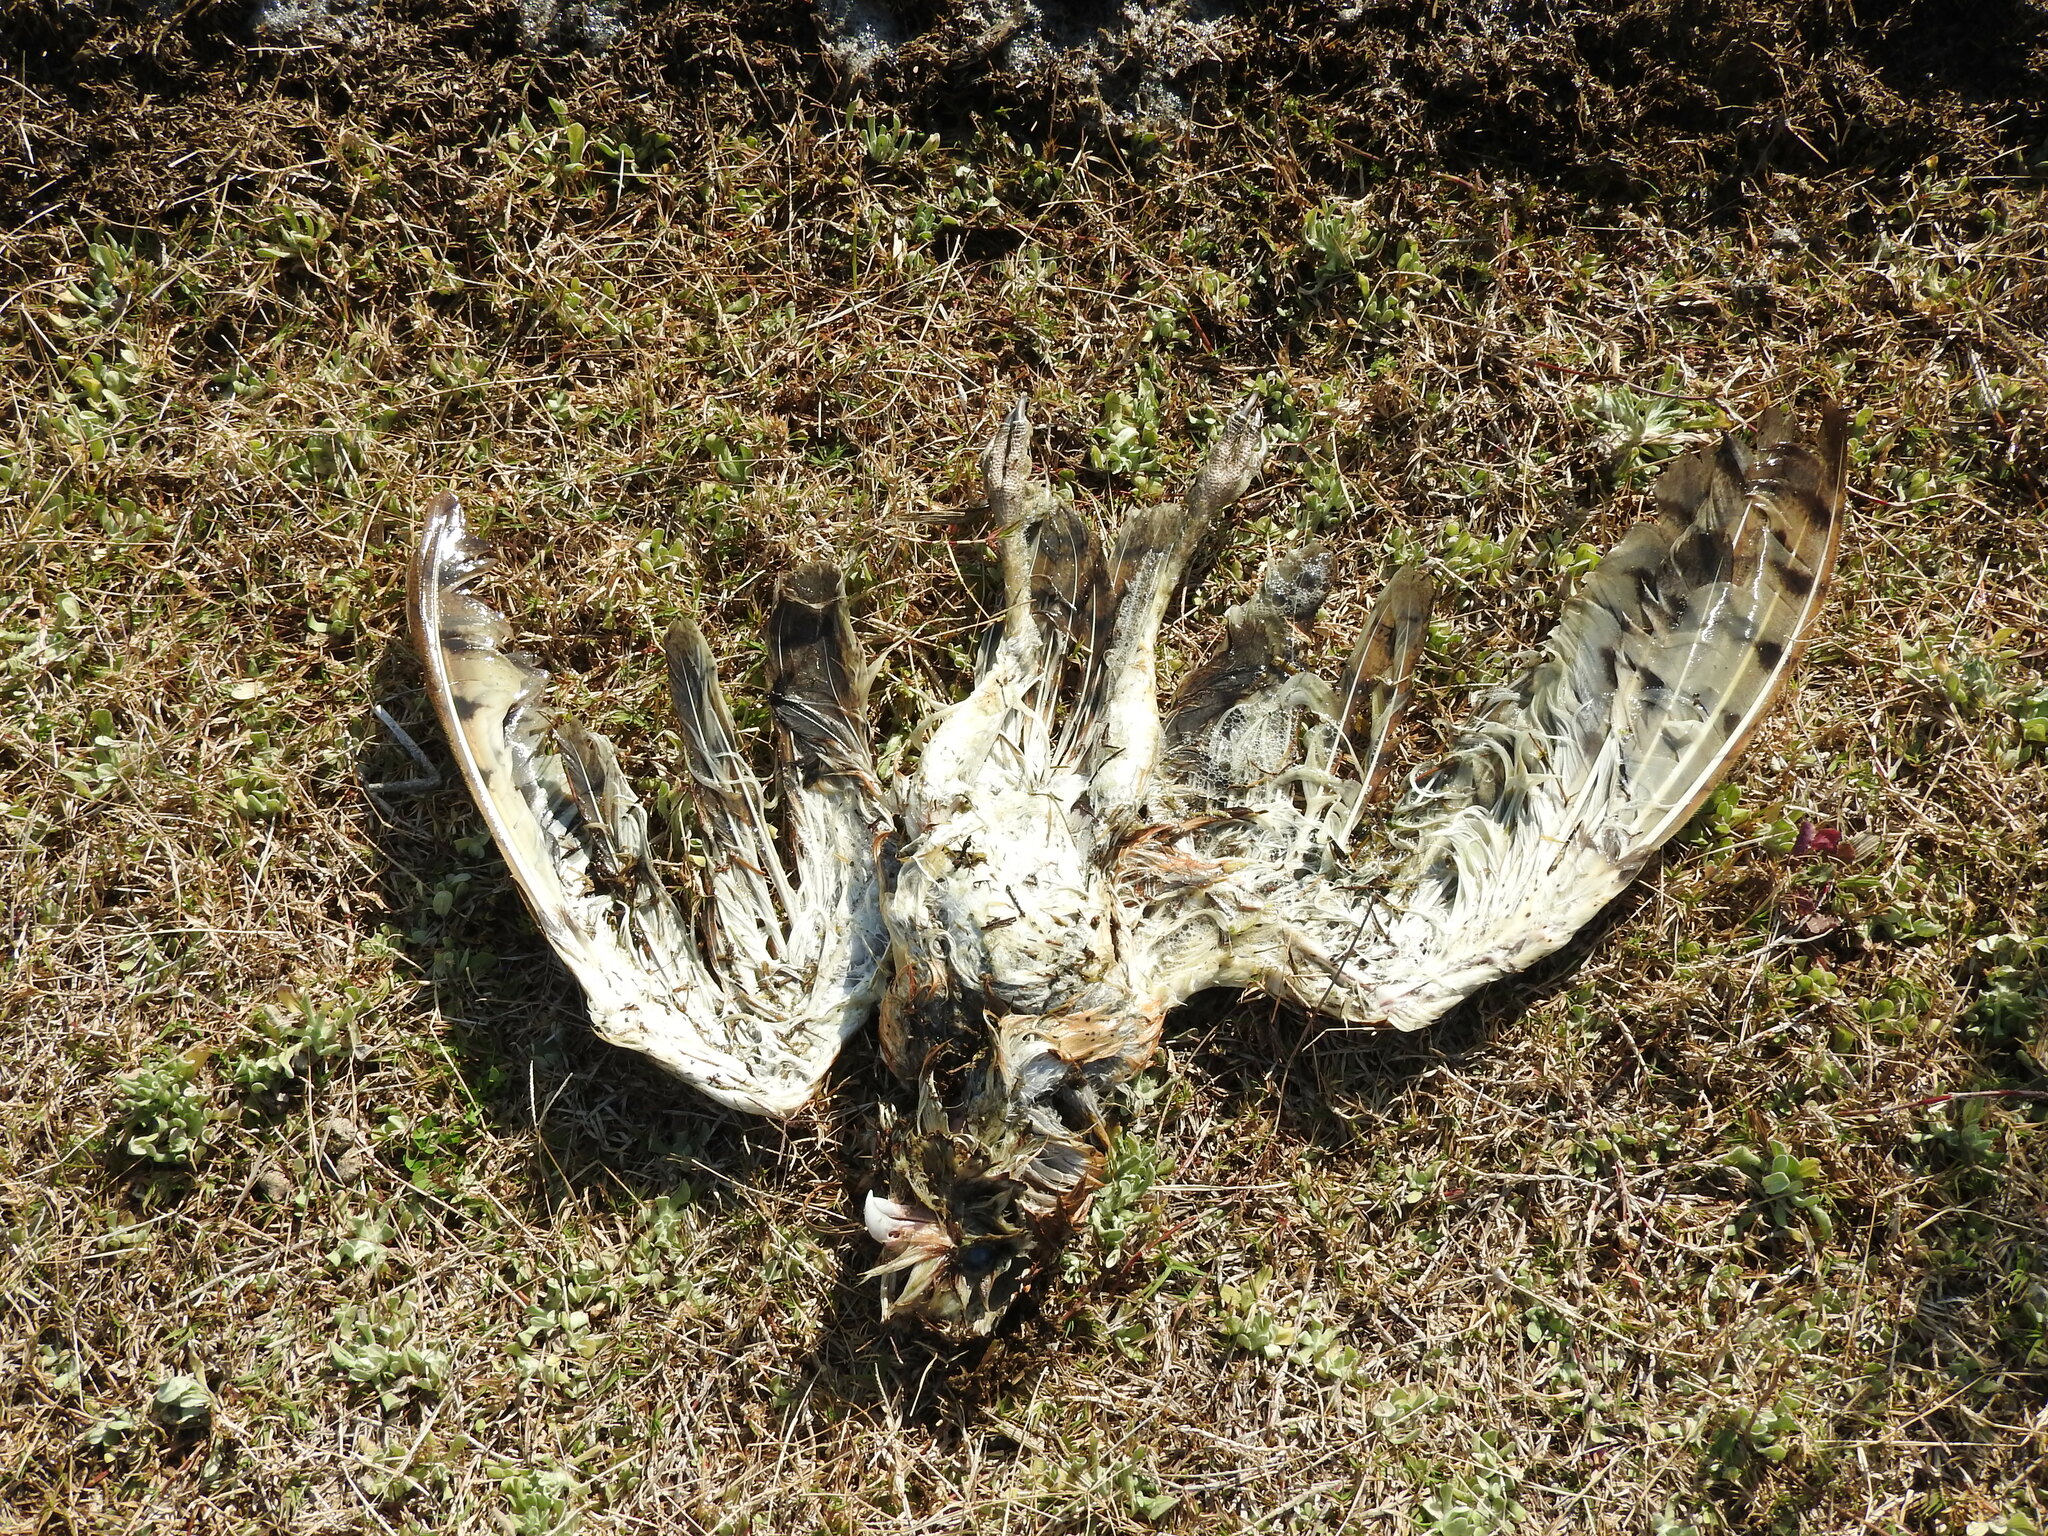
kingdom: Animalia
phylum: Chordata
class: Aves
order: Strigiformes
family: Tytonidae
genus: Tyto
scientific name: Tyto alba
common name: Barn owl
